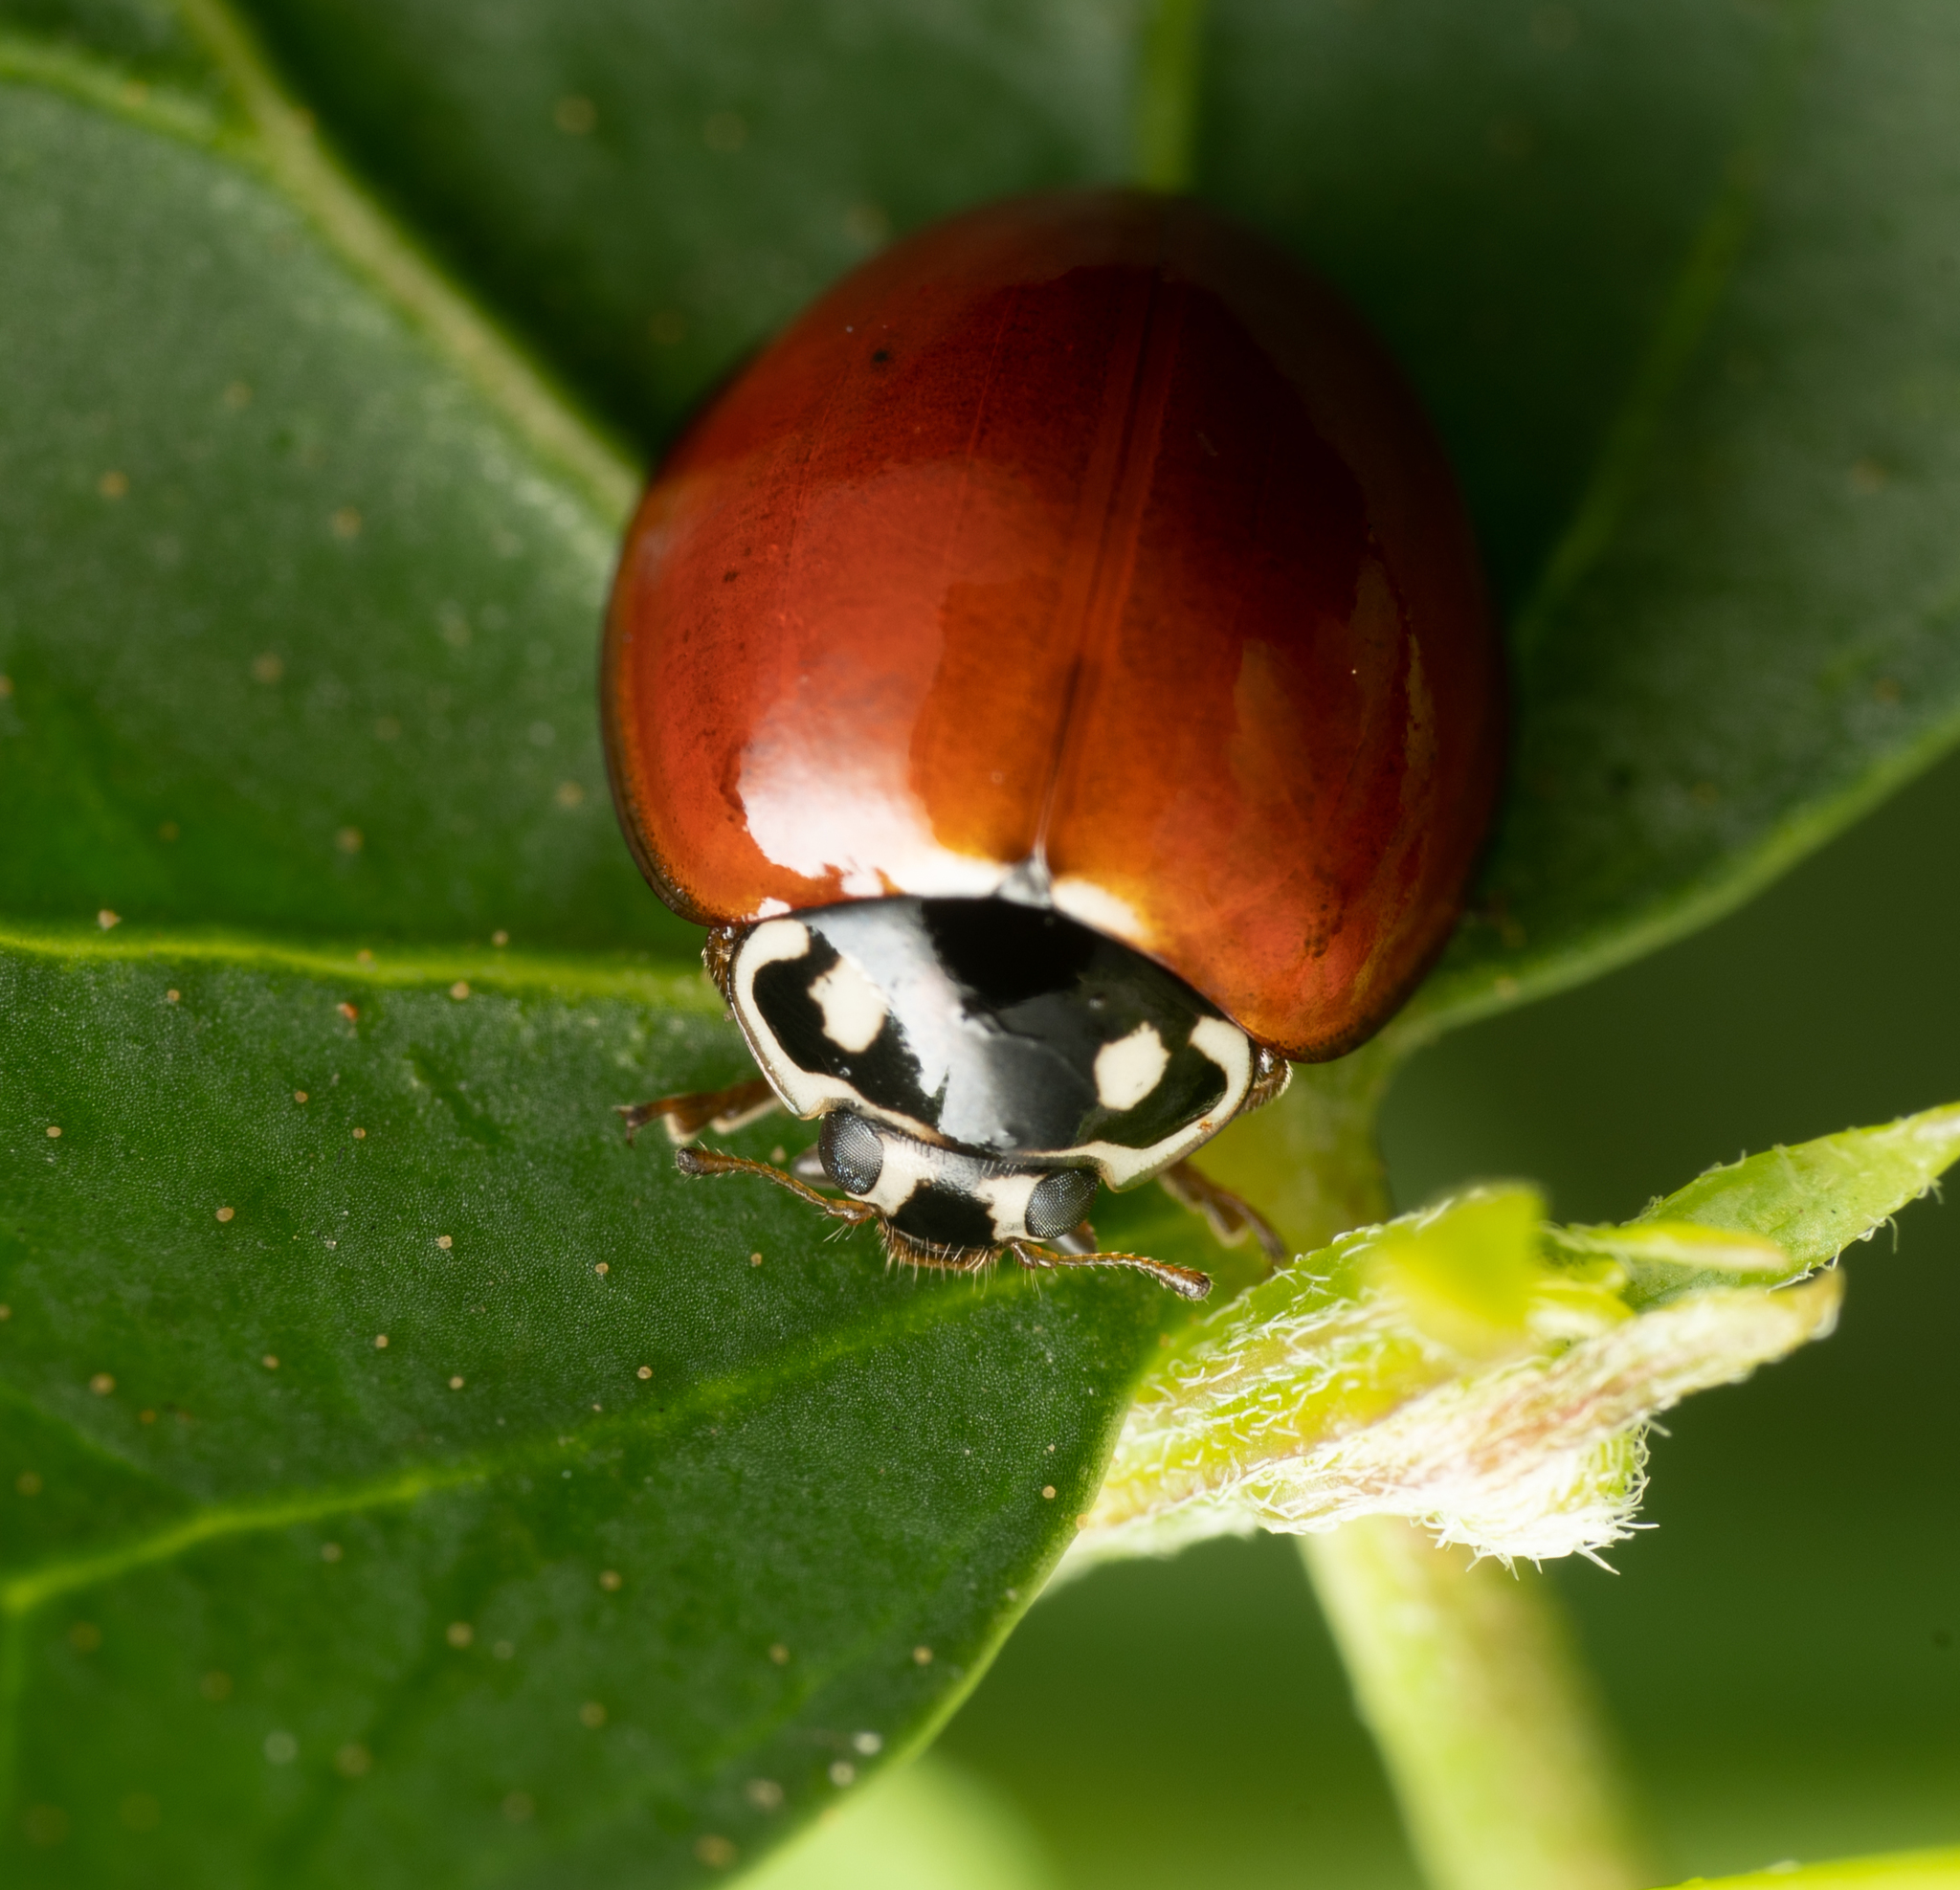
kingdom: Animalia
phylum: Arthropoda
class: Insecta
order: Coleoptera
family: Coccinellidae
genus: Cycloneda
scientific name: Cycloneda sanguinea
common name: Ladybird beetle
